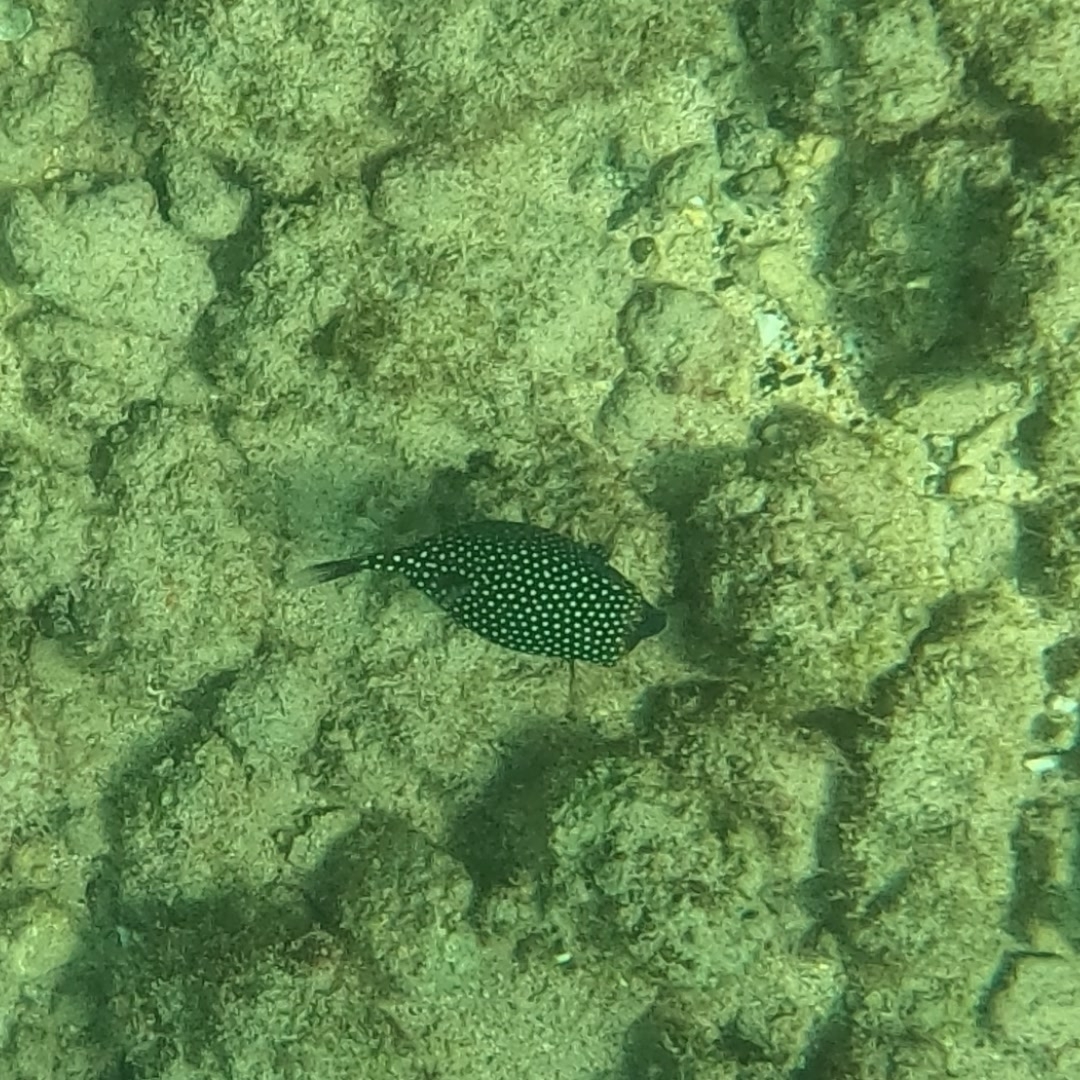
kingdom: Animalia
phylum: Chordata
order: Tetraodontiformes
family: Ostraciidae
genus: Ostracion
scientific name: Ostracion meleagris
